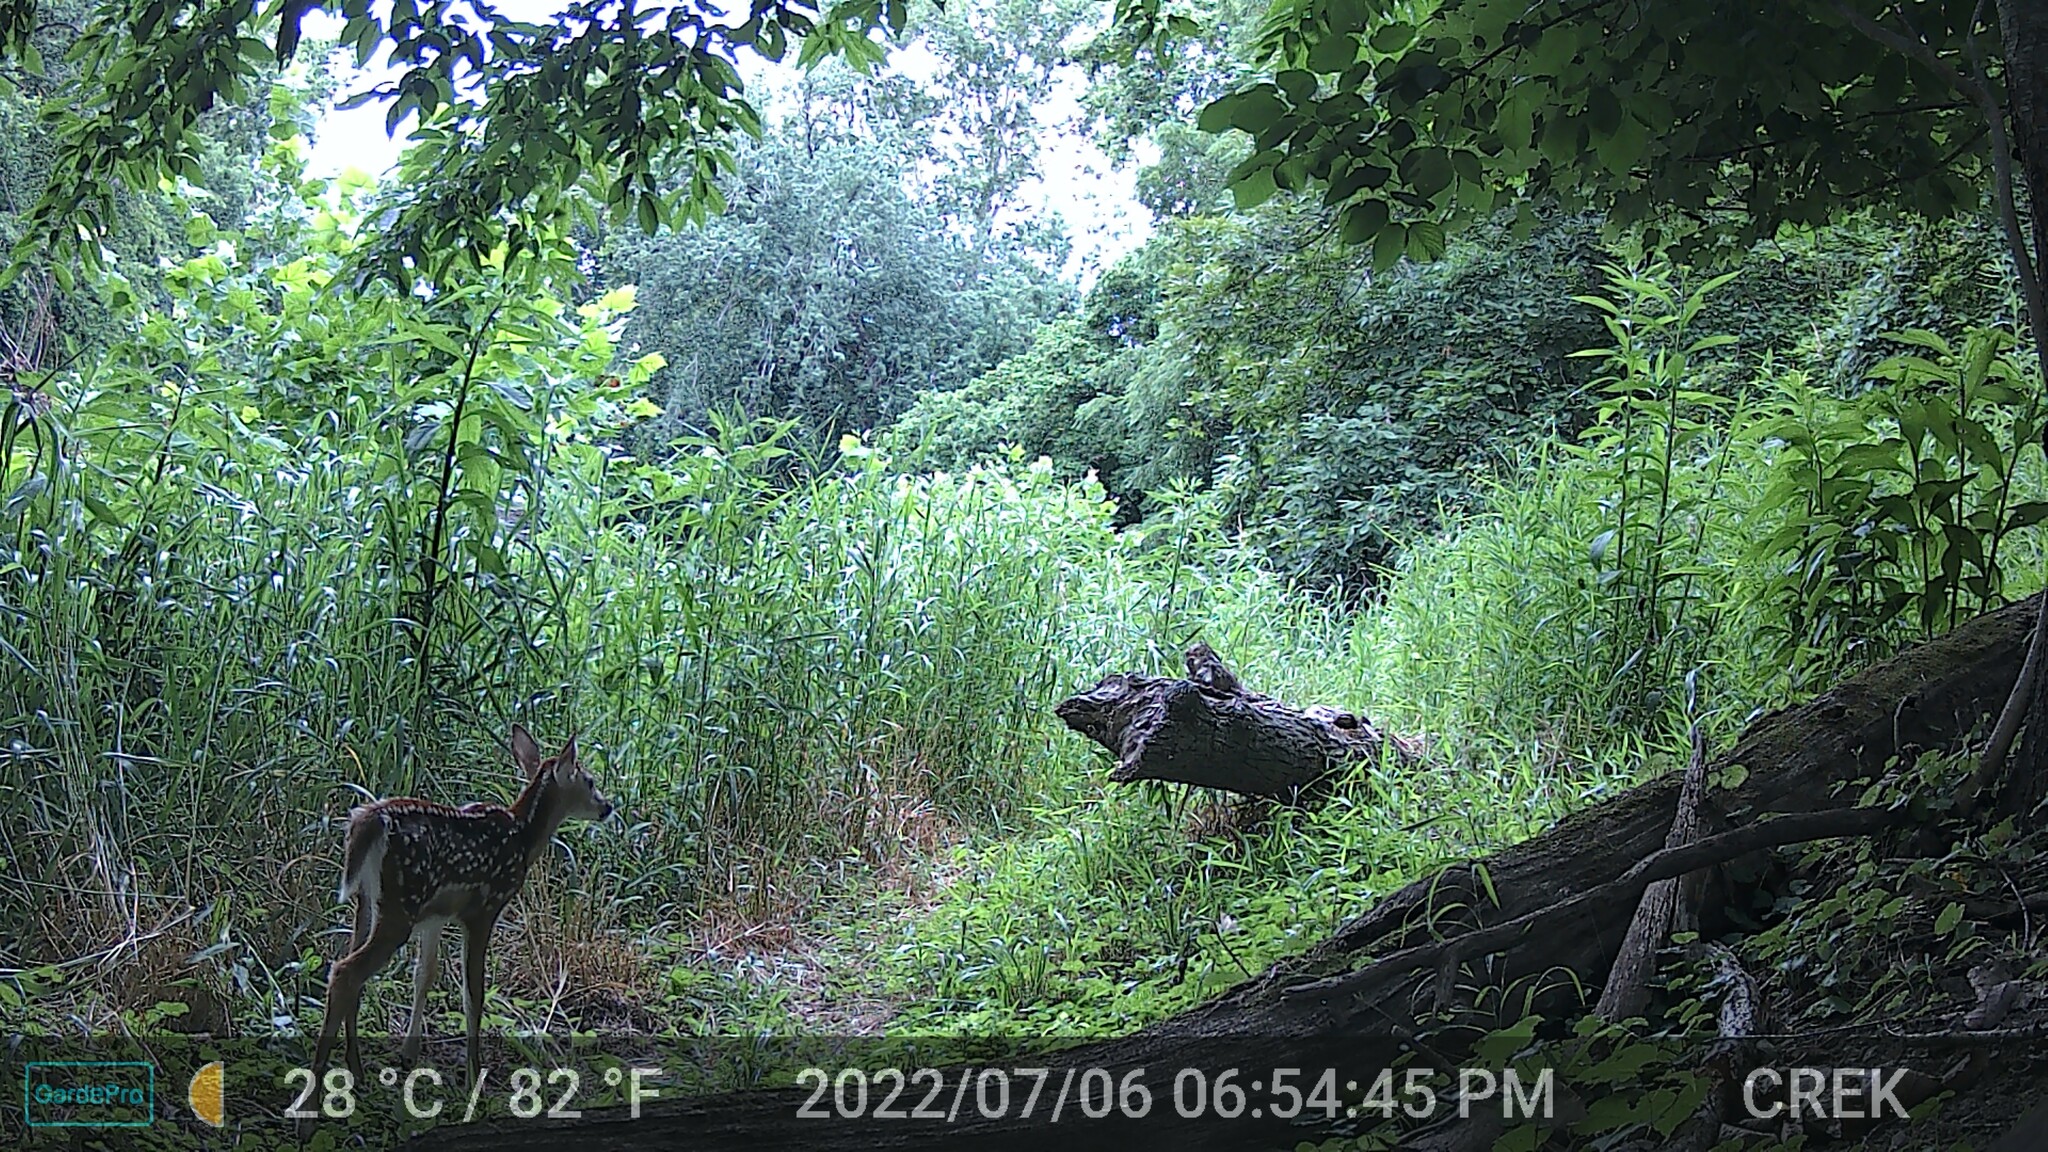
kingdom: Animalia
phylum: Chordata
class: Mammalia
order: Artiodactyla
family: Cervidae
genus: Odocoileus
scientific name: Odocoileus virginianus
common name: White-tailed deer
